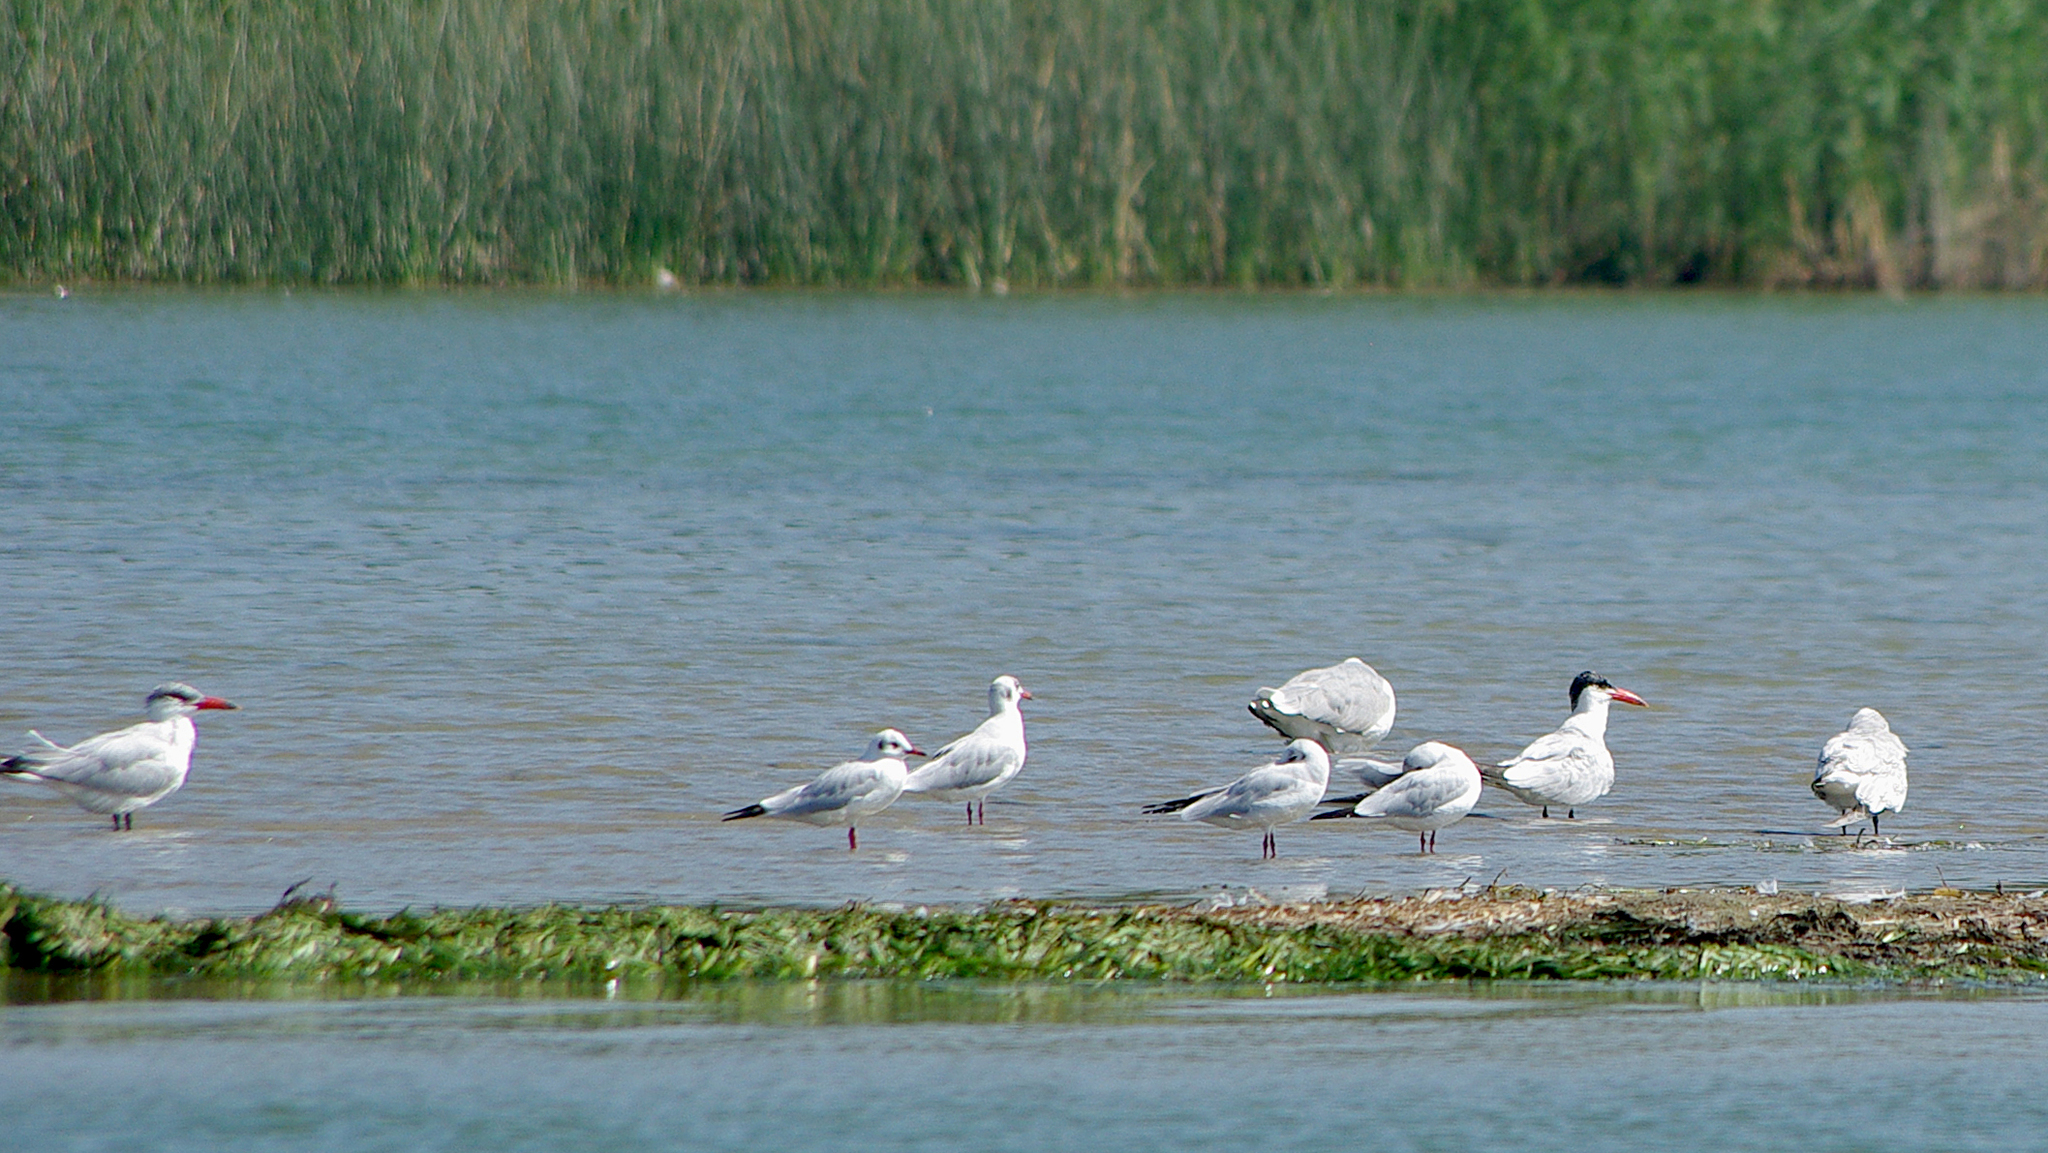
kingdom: Animalia
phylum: Chordata
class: Aves
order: Charadriiformes
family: Laridae
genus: Chroicocephalus
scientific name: Chroicocephalus ridibundus
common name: Black-headed gull
